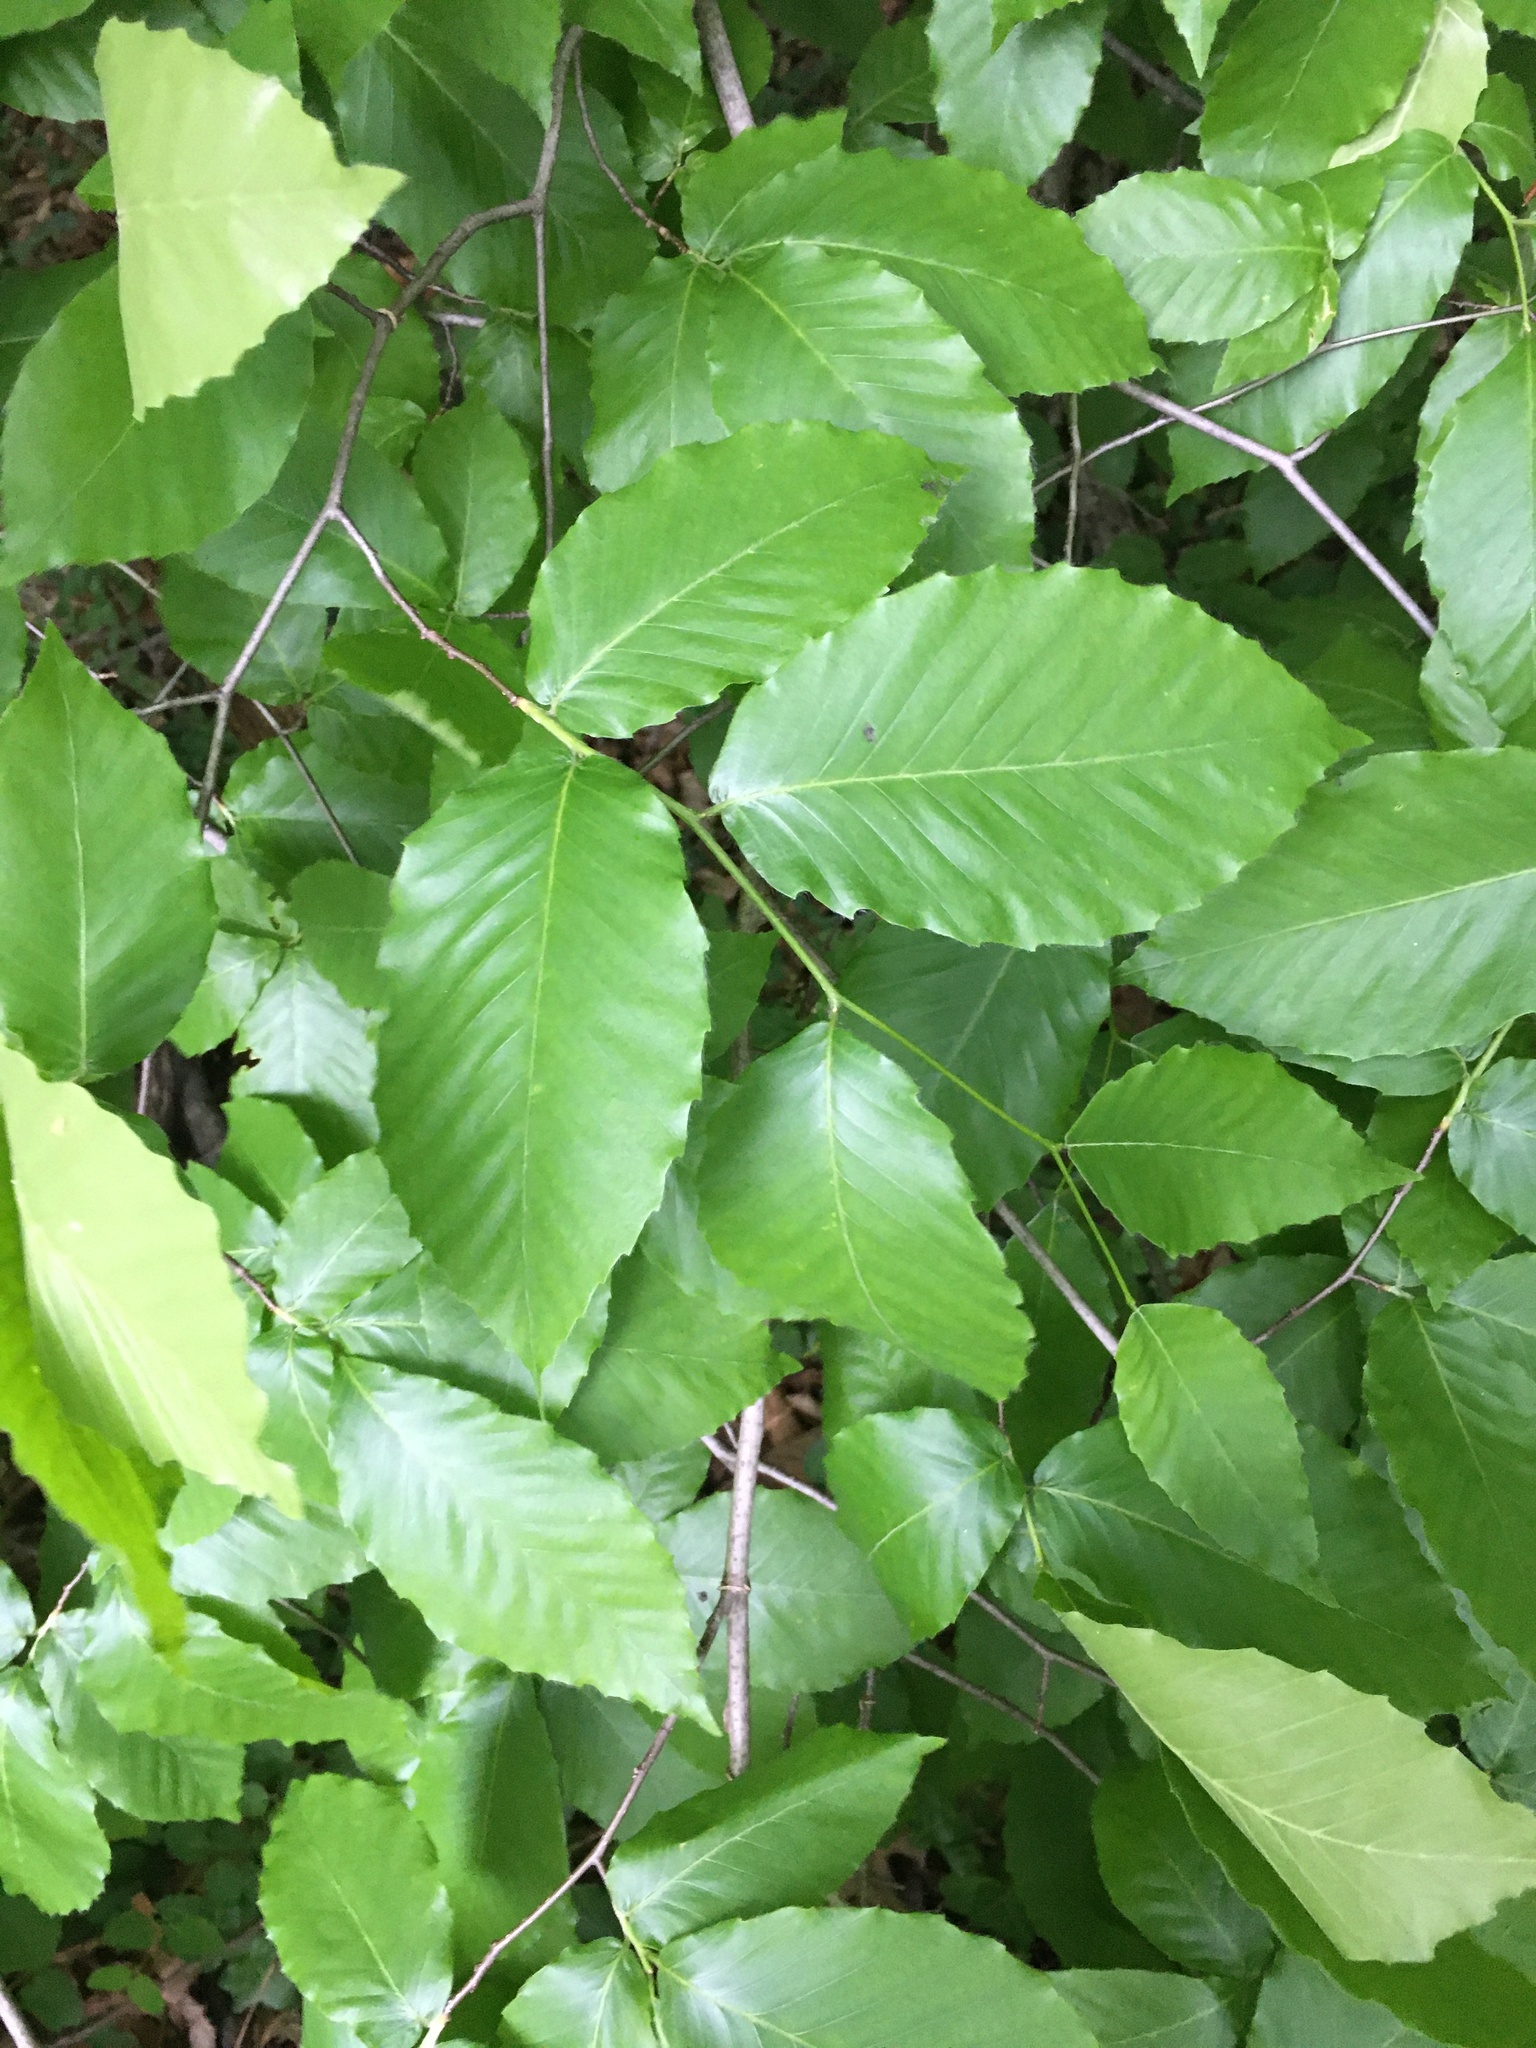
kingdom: Plantae
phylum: Tracheophyta
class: Magnoliopsida
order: Fagales
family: Fagaceae
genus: Fagus
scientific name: Fagus grandifolia
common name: American beech
